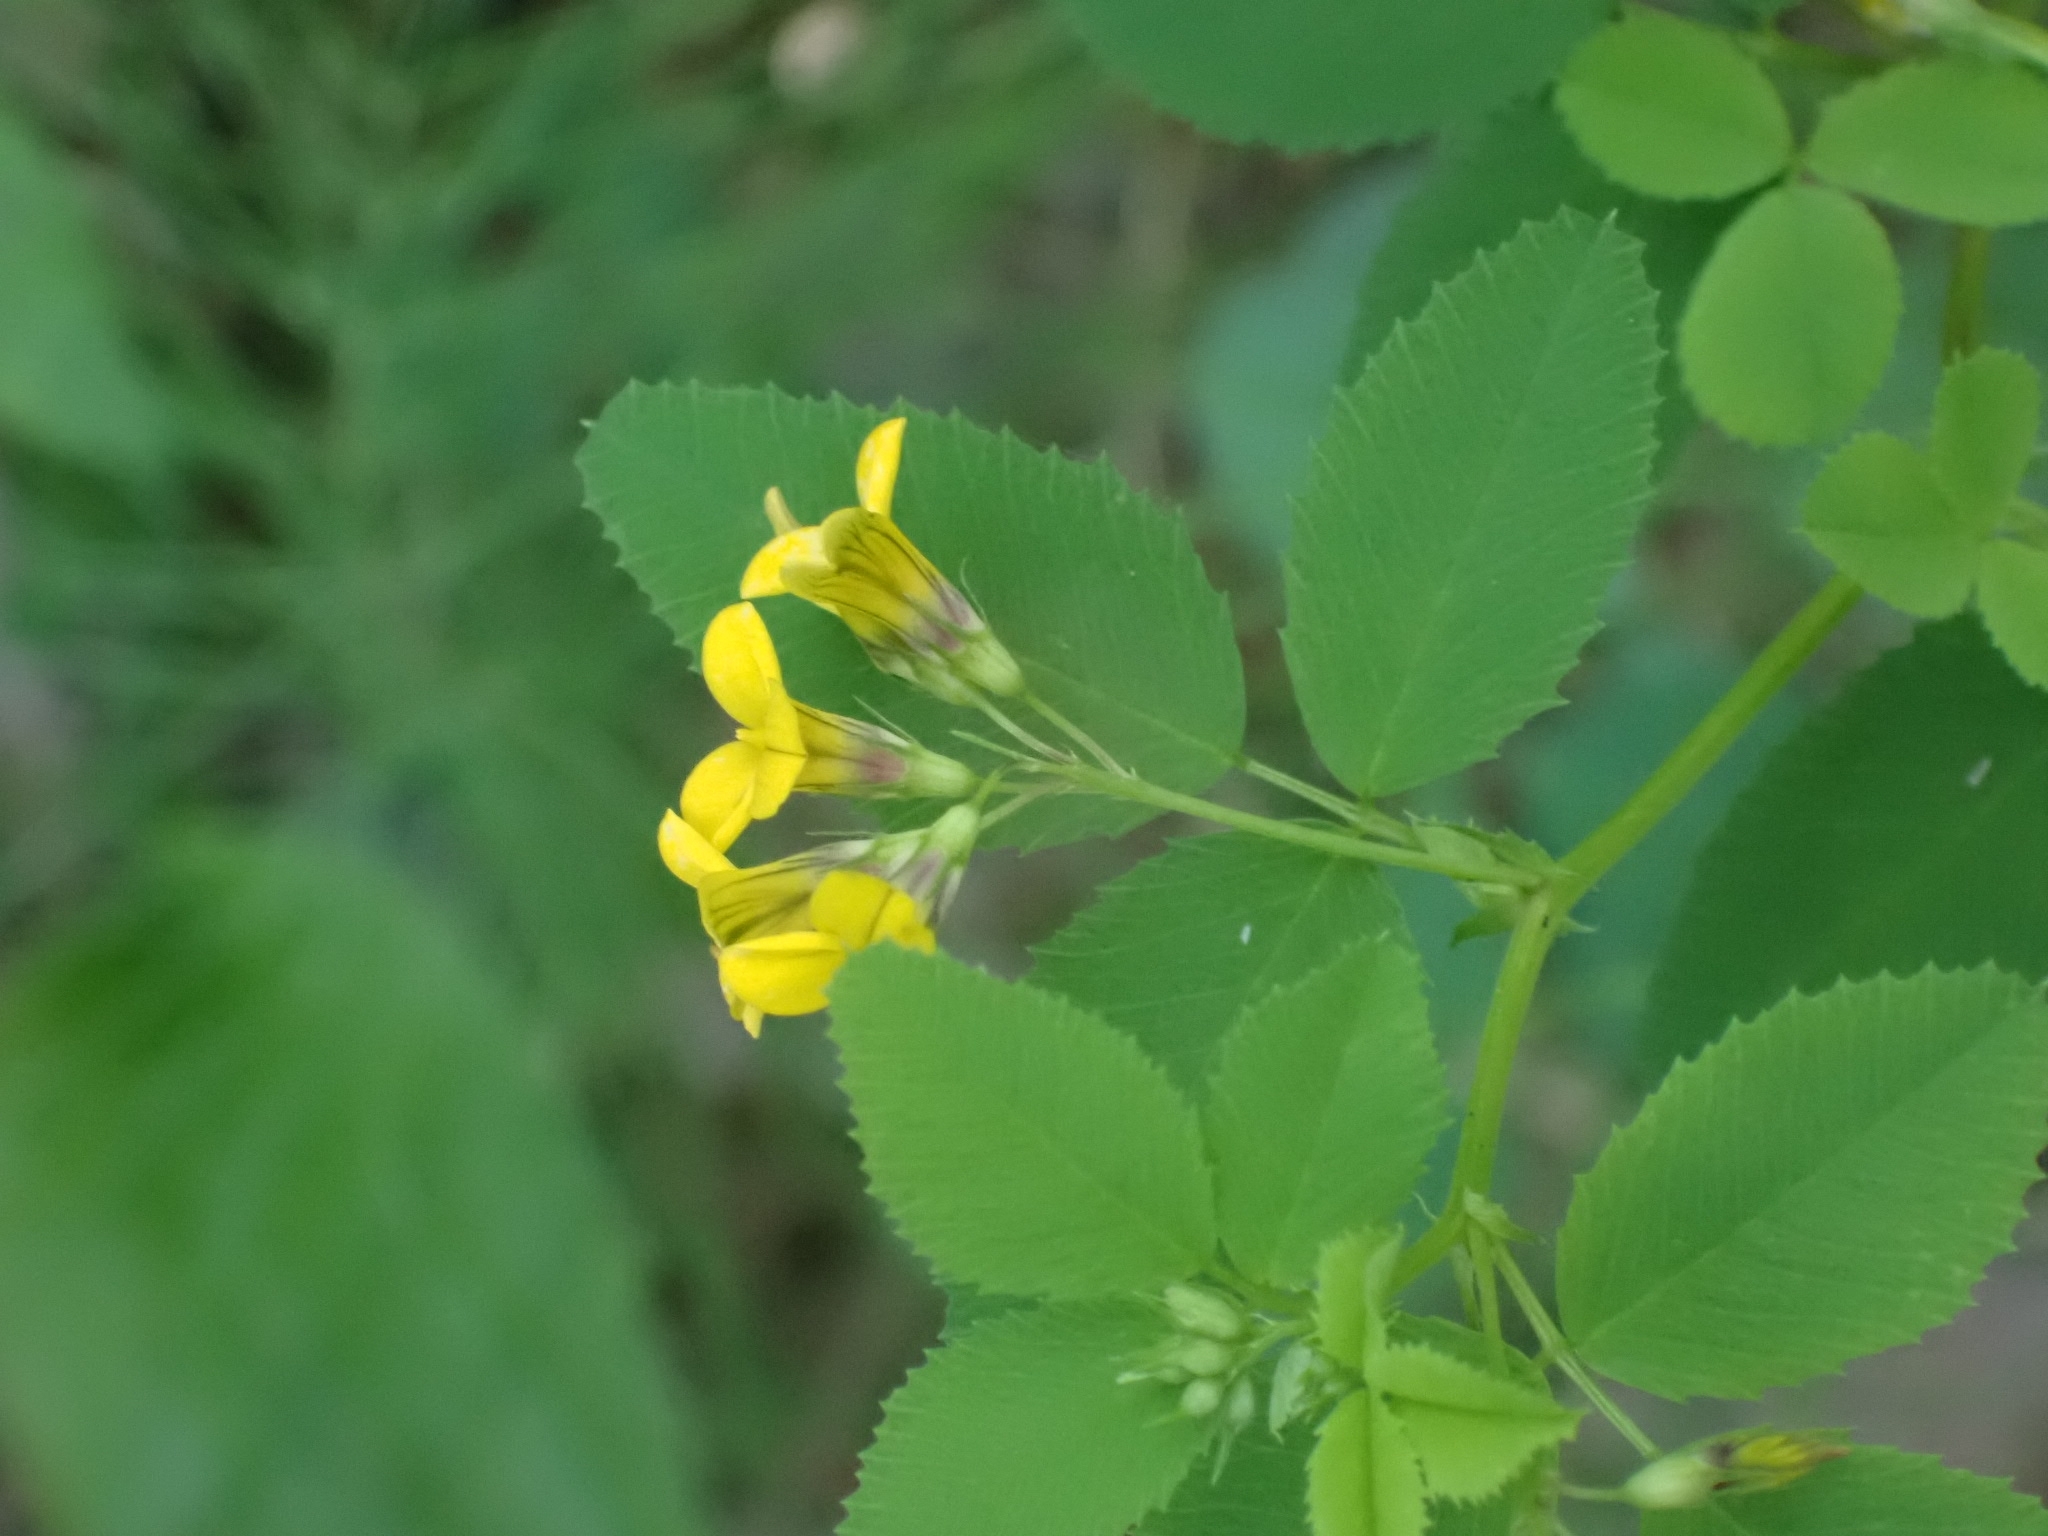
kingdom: Plantae
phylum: Tracheophyta
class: Magnoliopsida
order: Fabales
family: Fabaceae
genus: Medicago
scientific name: Medicago platycarpos
